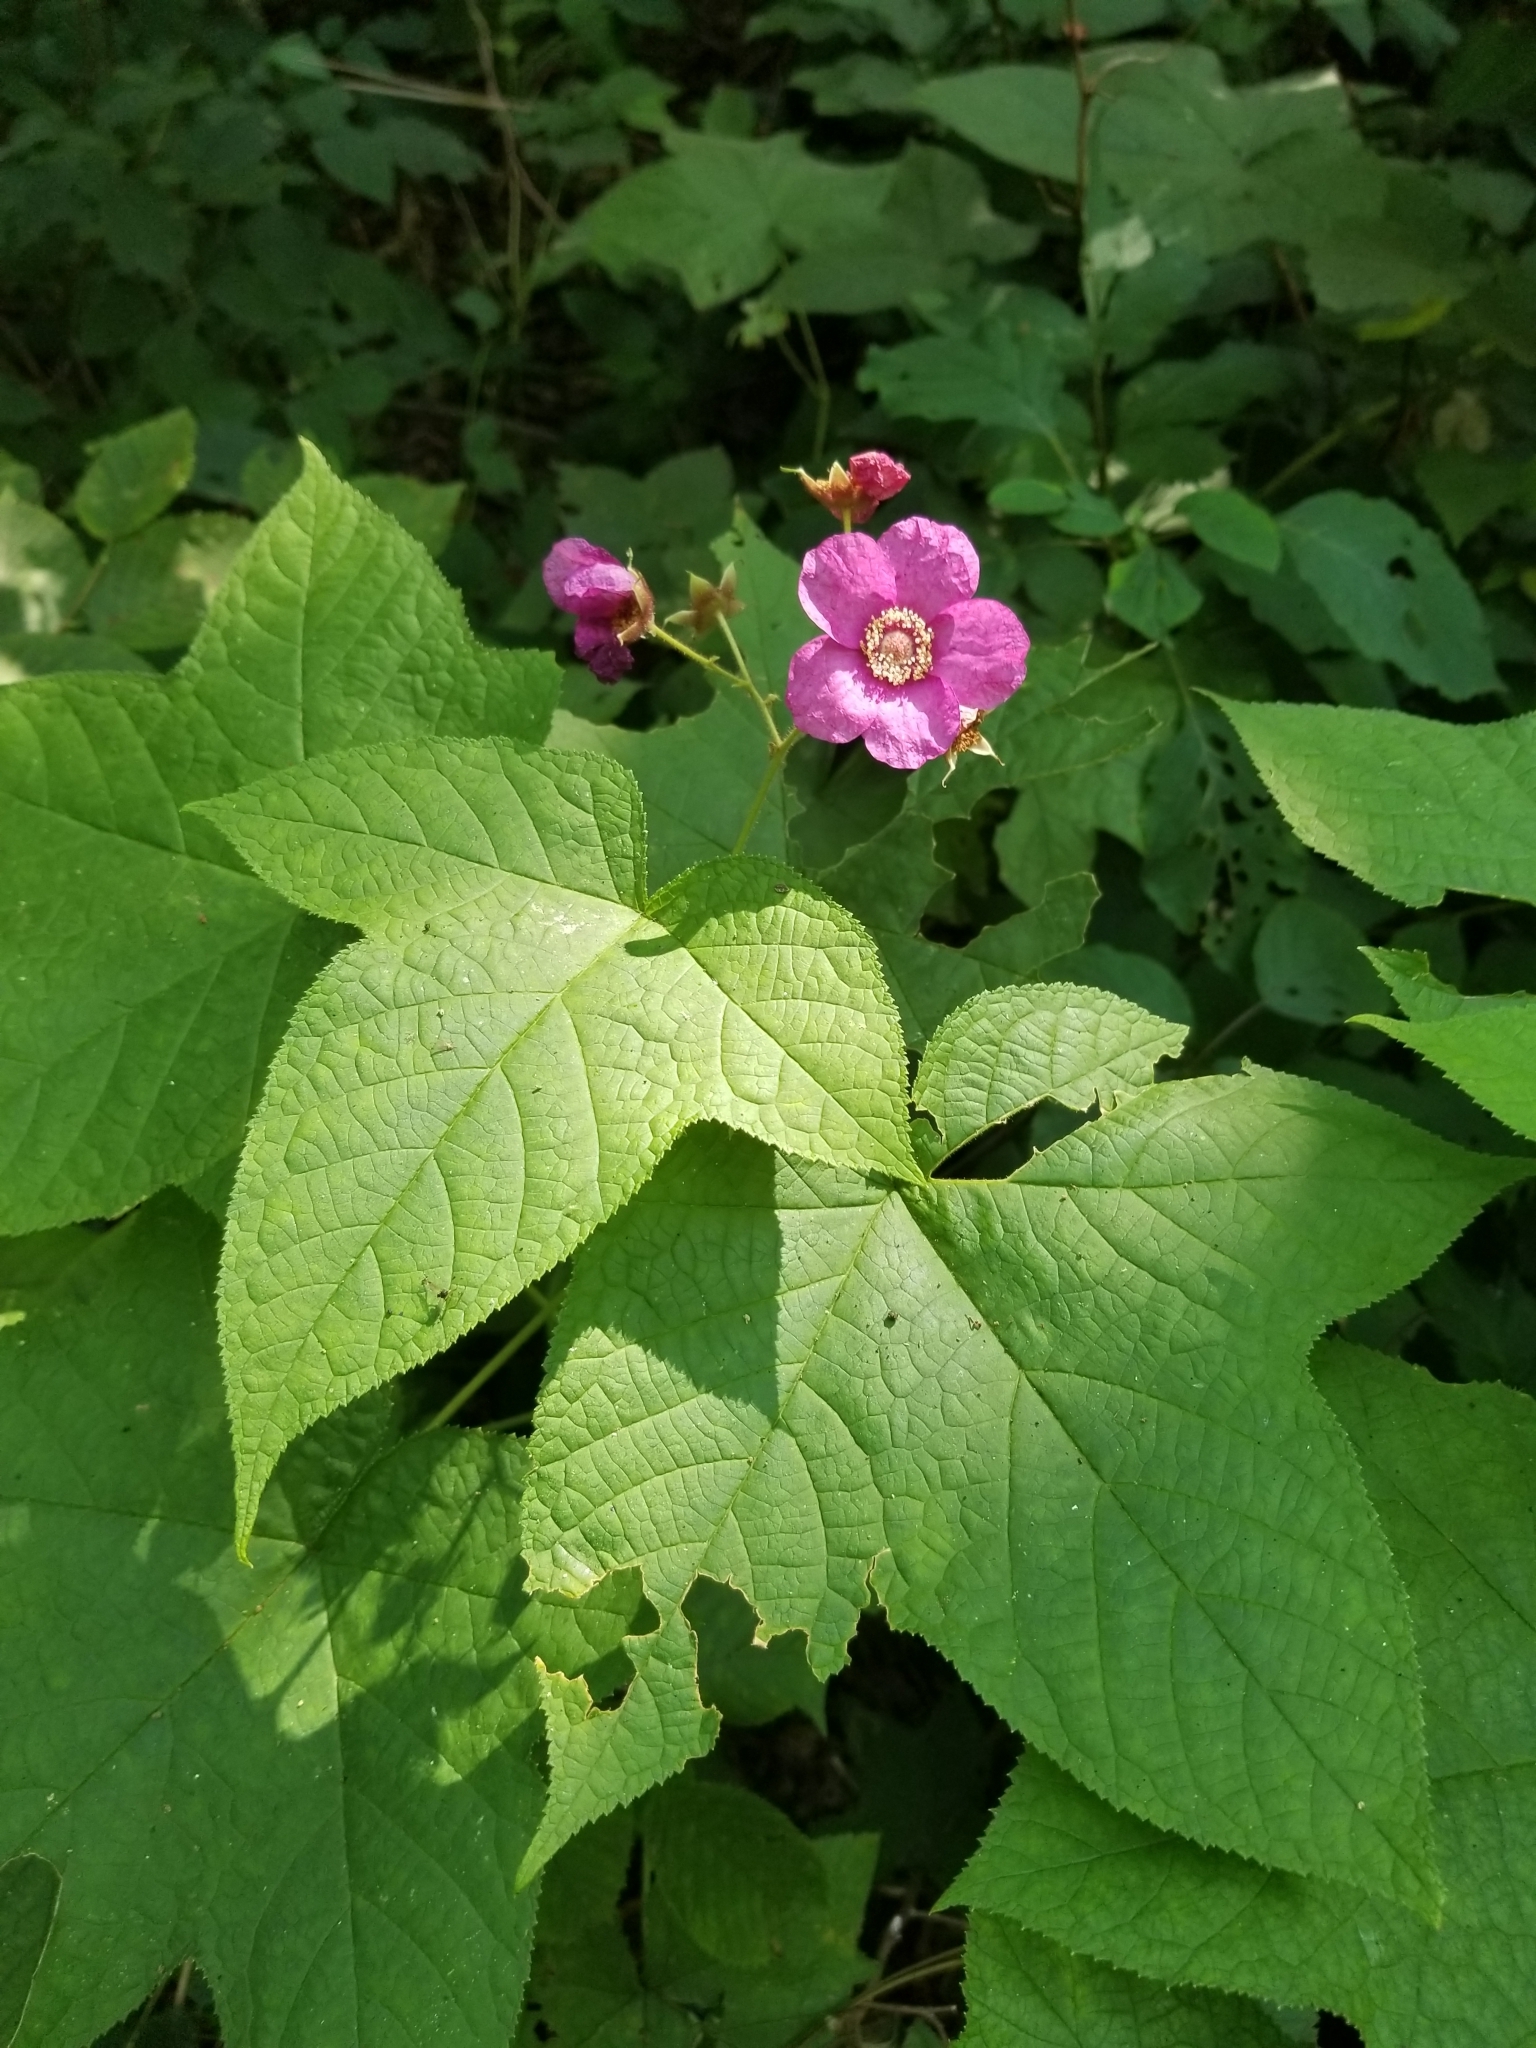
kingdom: Plantae
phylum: Tracheophyta
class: Magnoliopsida
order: Rosales
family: Rosaceae
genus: Rubus
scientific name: Rubus odoratus
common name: Purple-flowered raspberry
